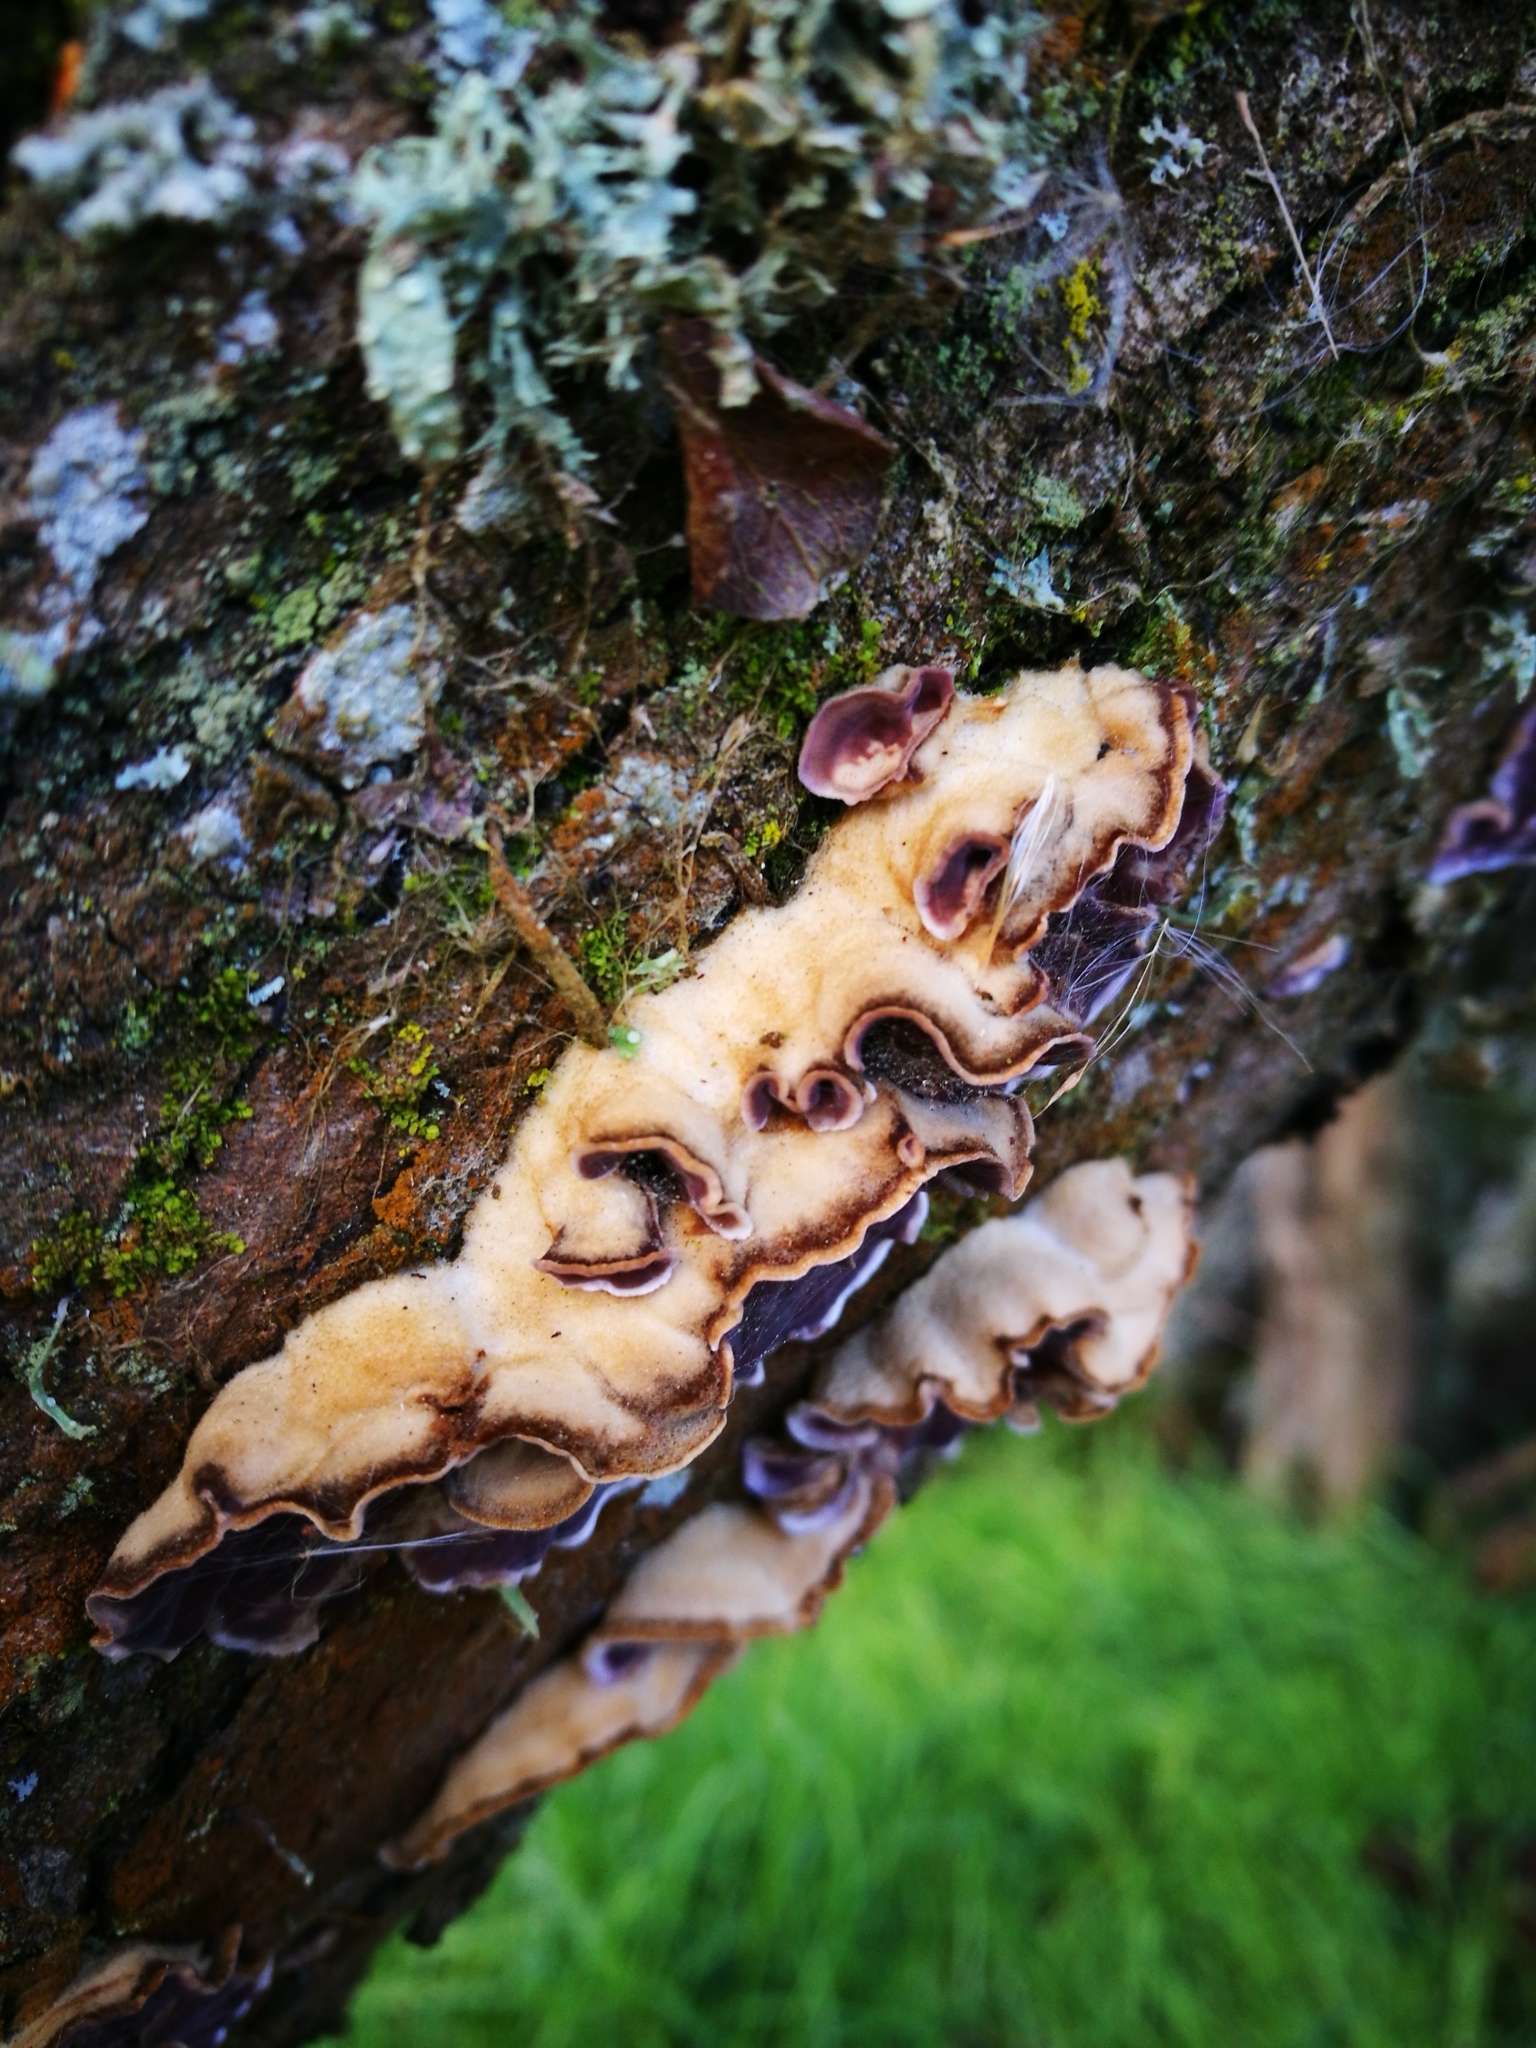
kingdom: Fungi
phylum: Basidiomycota
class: Agaricomycetes
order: Agaricales
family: Cyphellaceae
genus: Chondrostereum
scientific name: Chondrostereum purpureum
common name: Silver leaf disease
